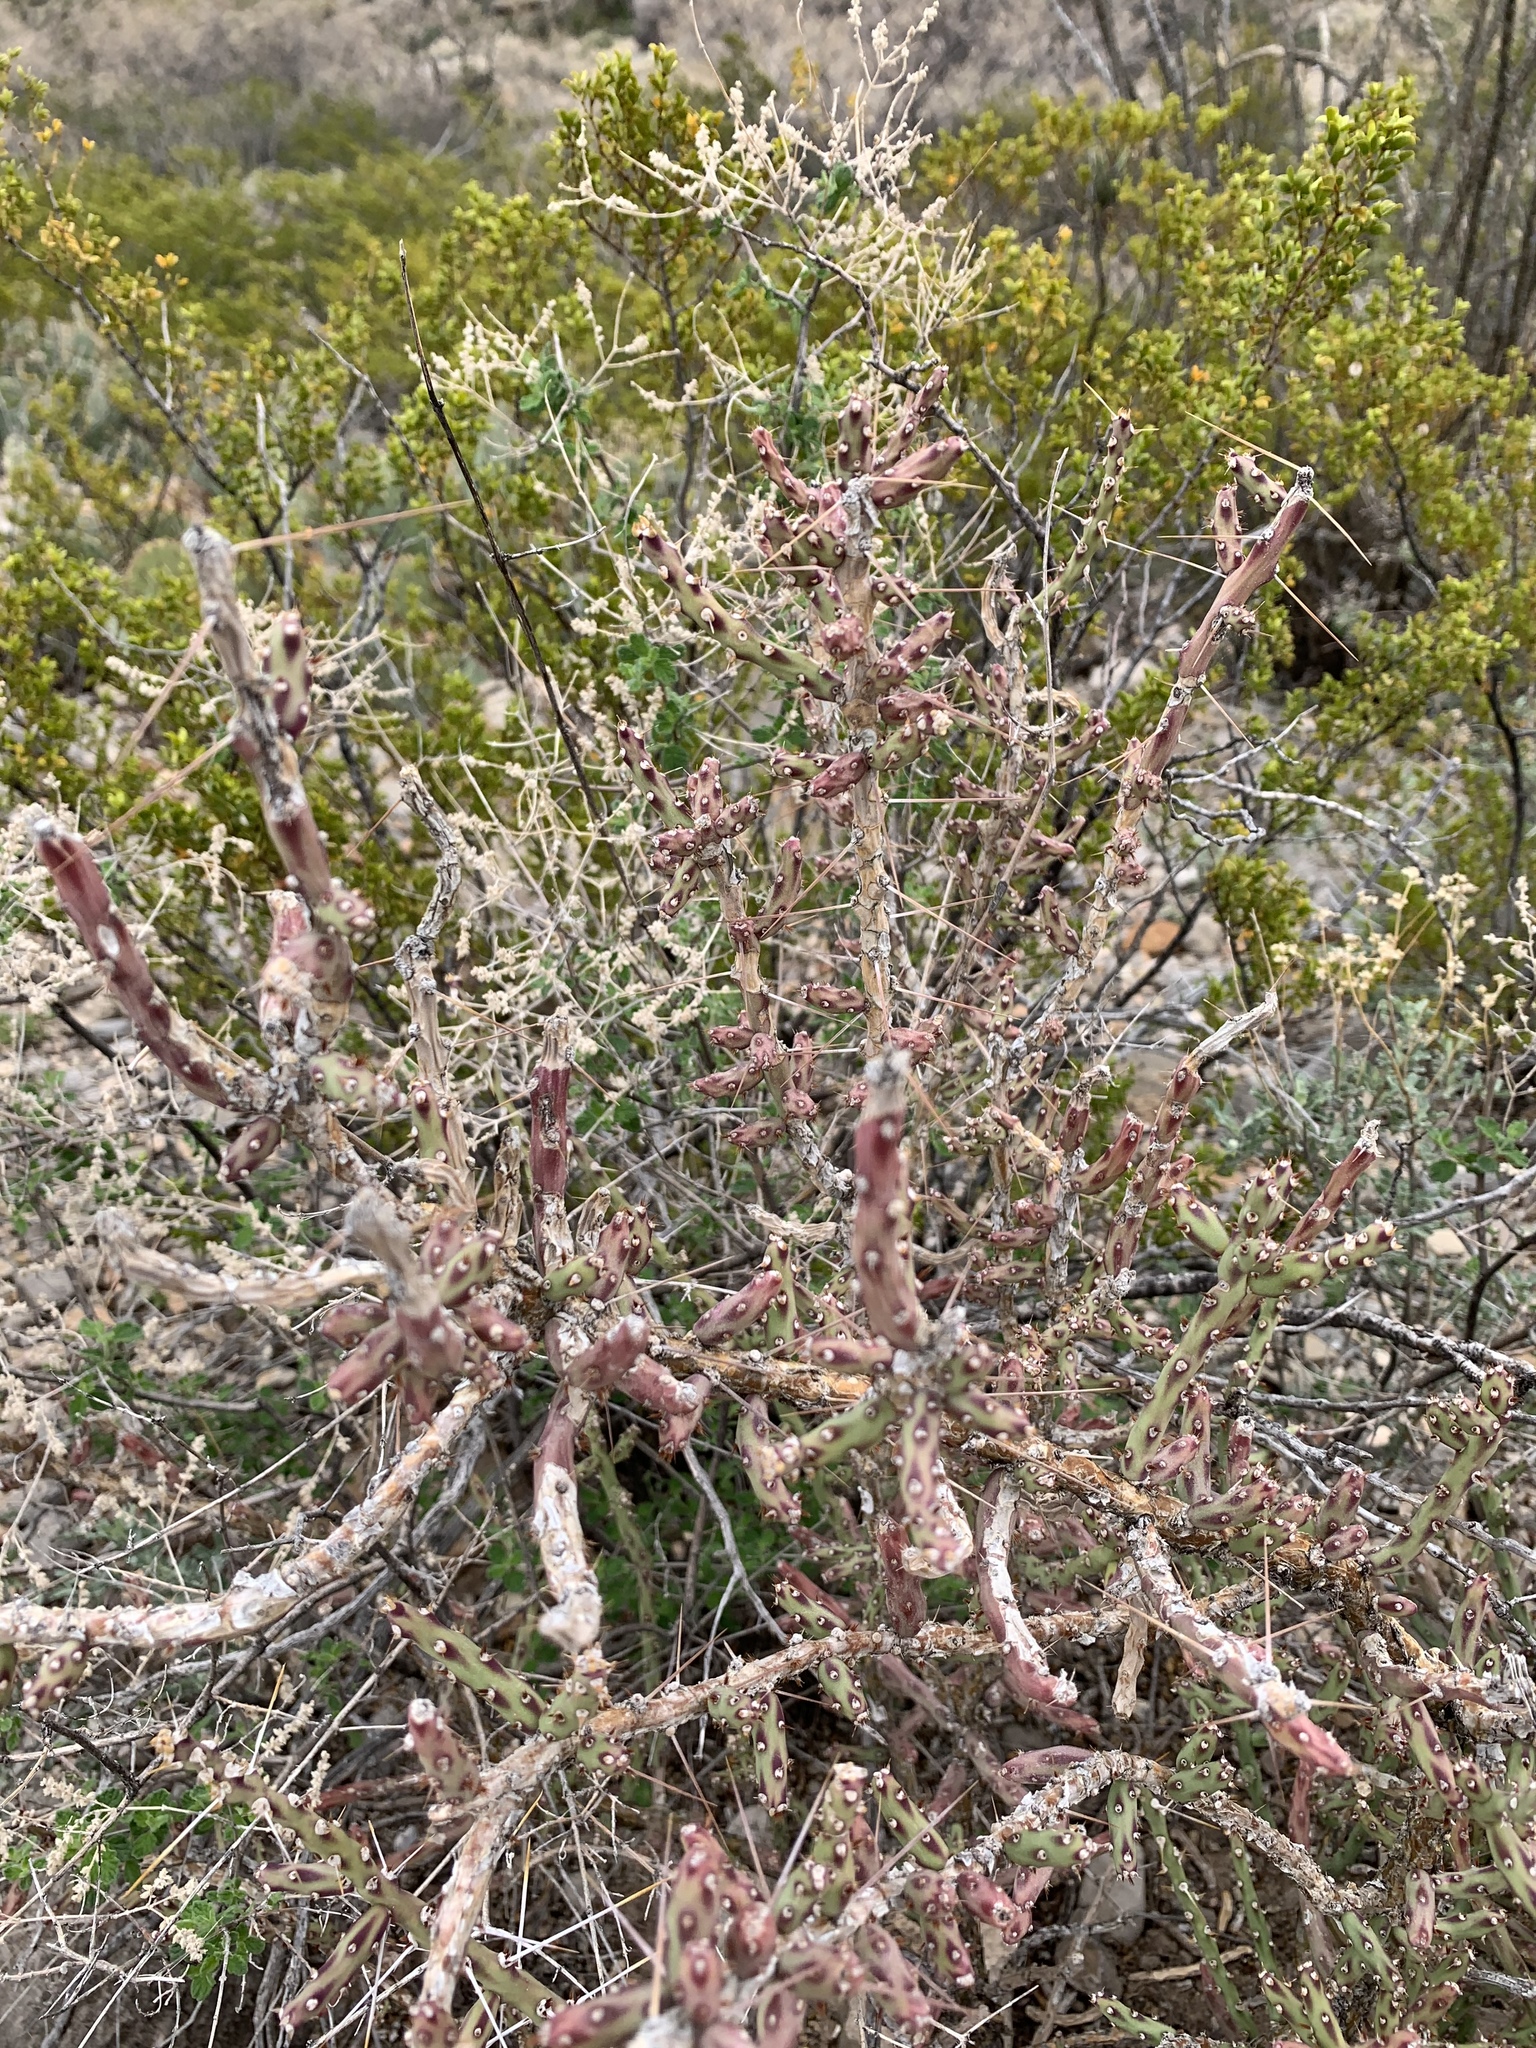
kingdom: Plantae
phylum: Tracheophyta
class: Magnoliopsida
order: Caryophyllales
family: Cactaceae
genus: Cylindropuntia
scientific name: Cylindropuntia leptocaulis
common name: Christmas cactus
